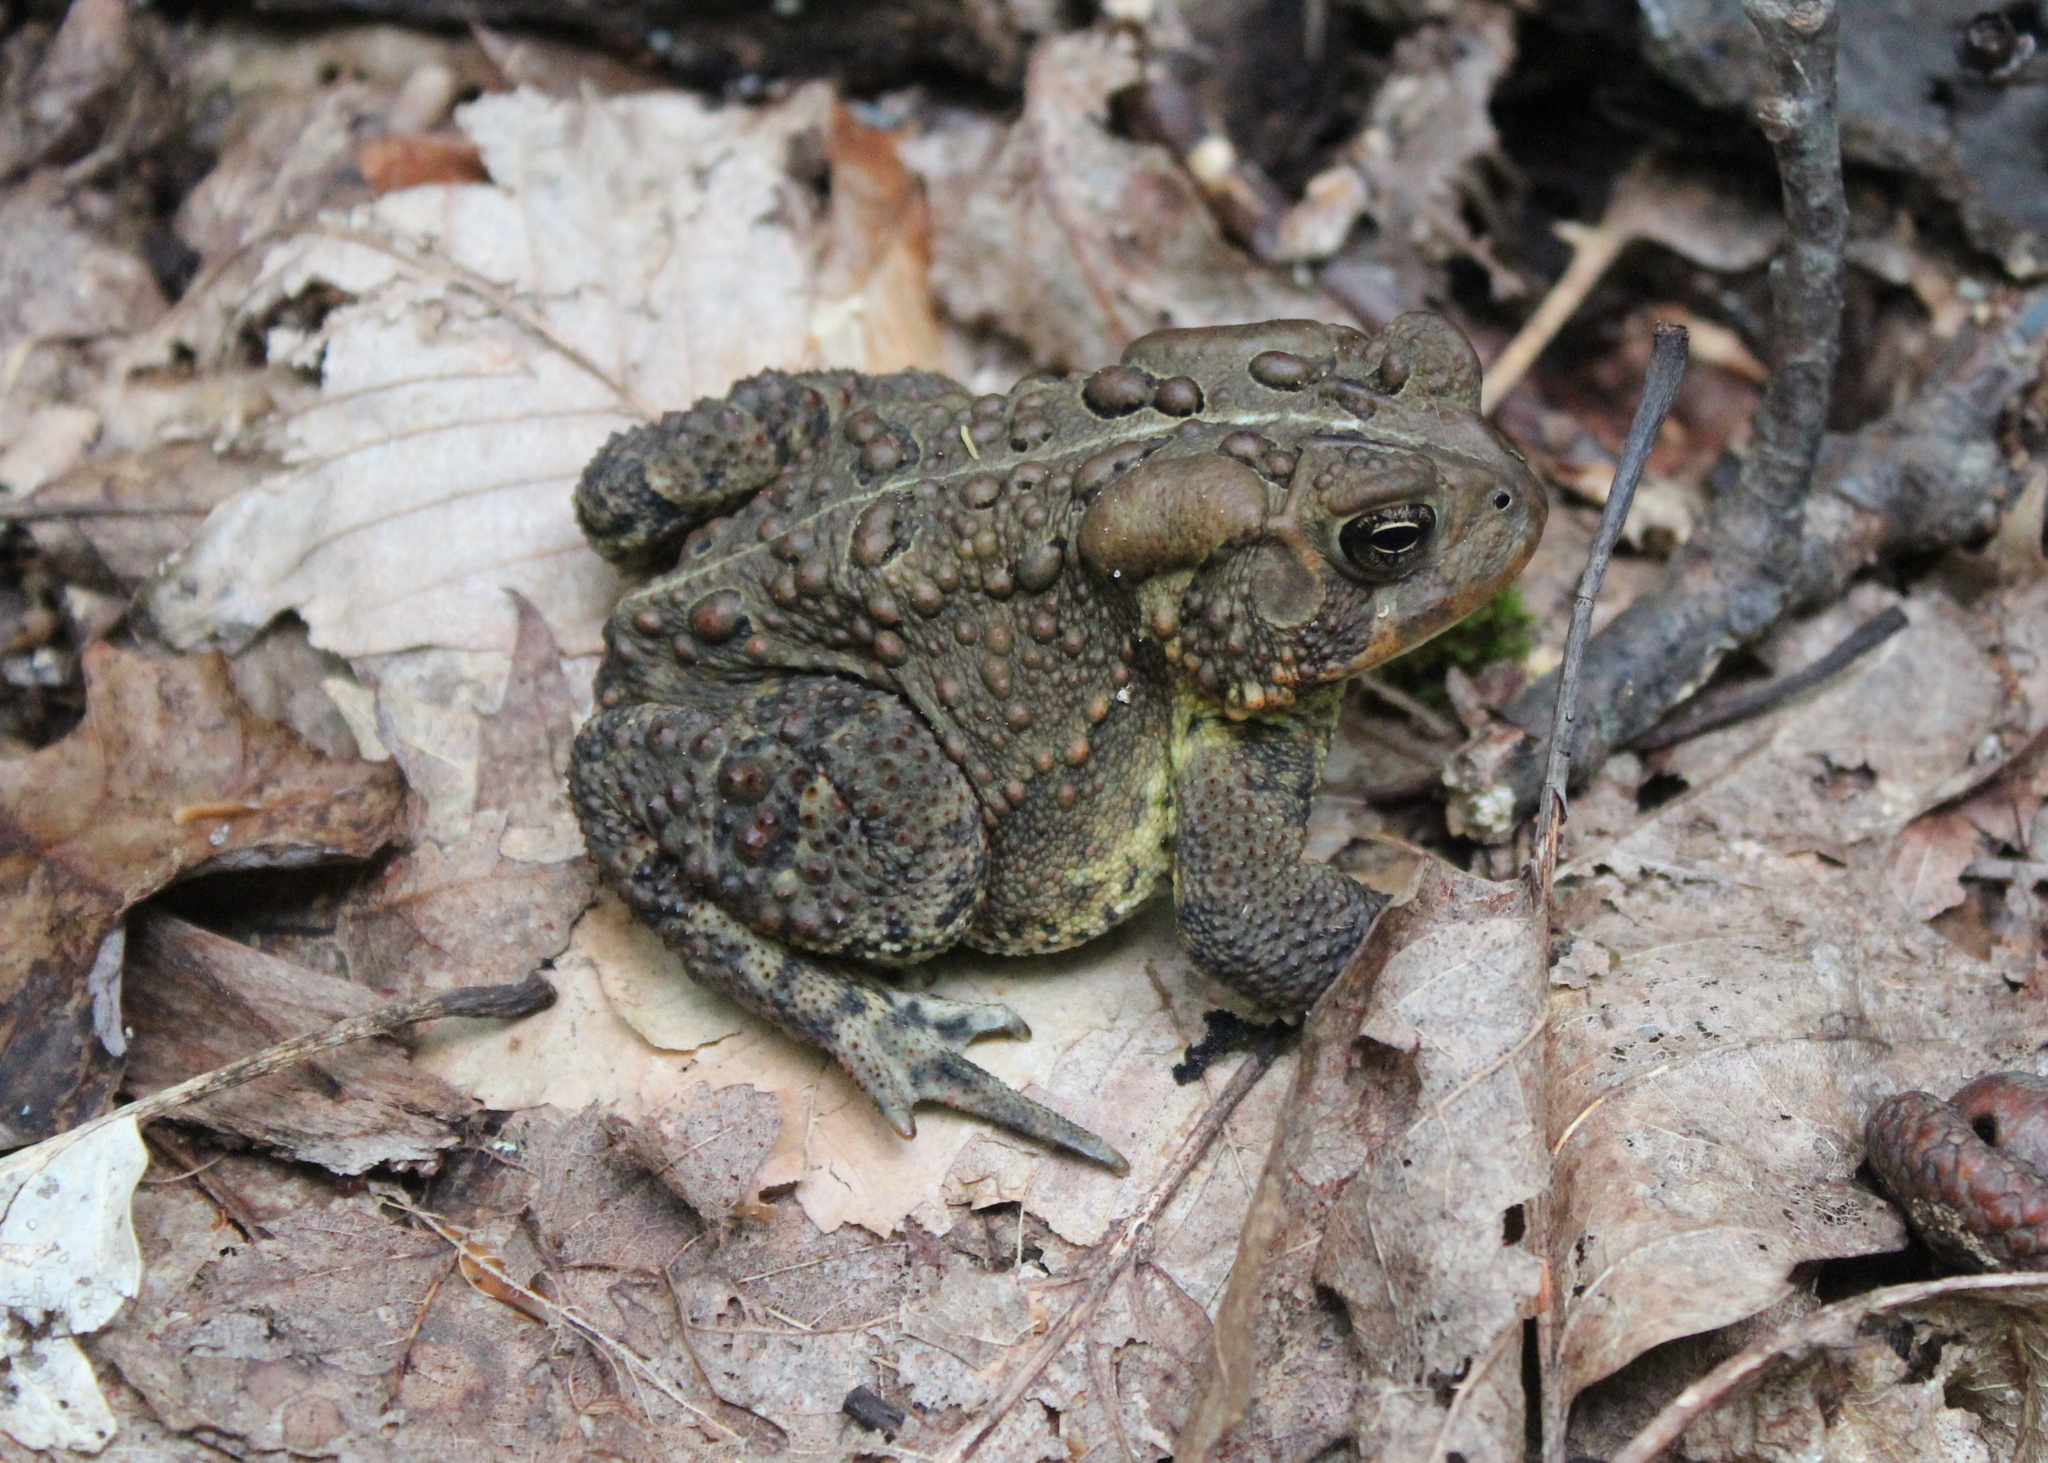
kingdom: Animalia
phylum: Chordata
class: Amphibia
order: Anura
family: Bufonidae
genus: Anaxyrus
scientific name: Anaxyrus americanus
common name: American toad
